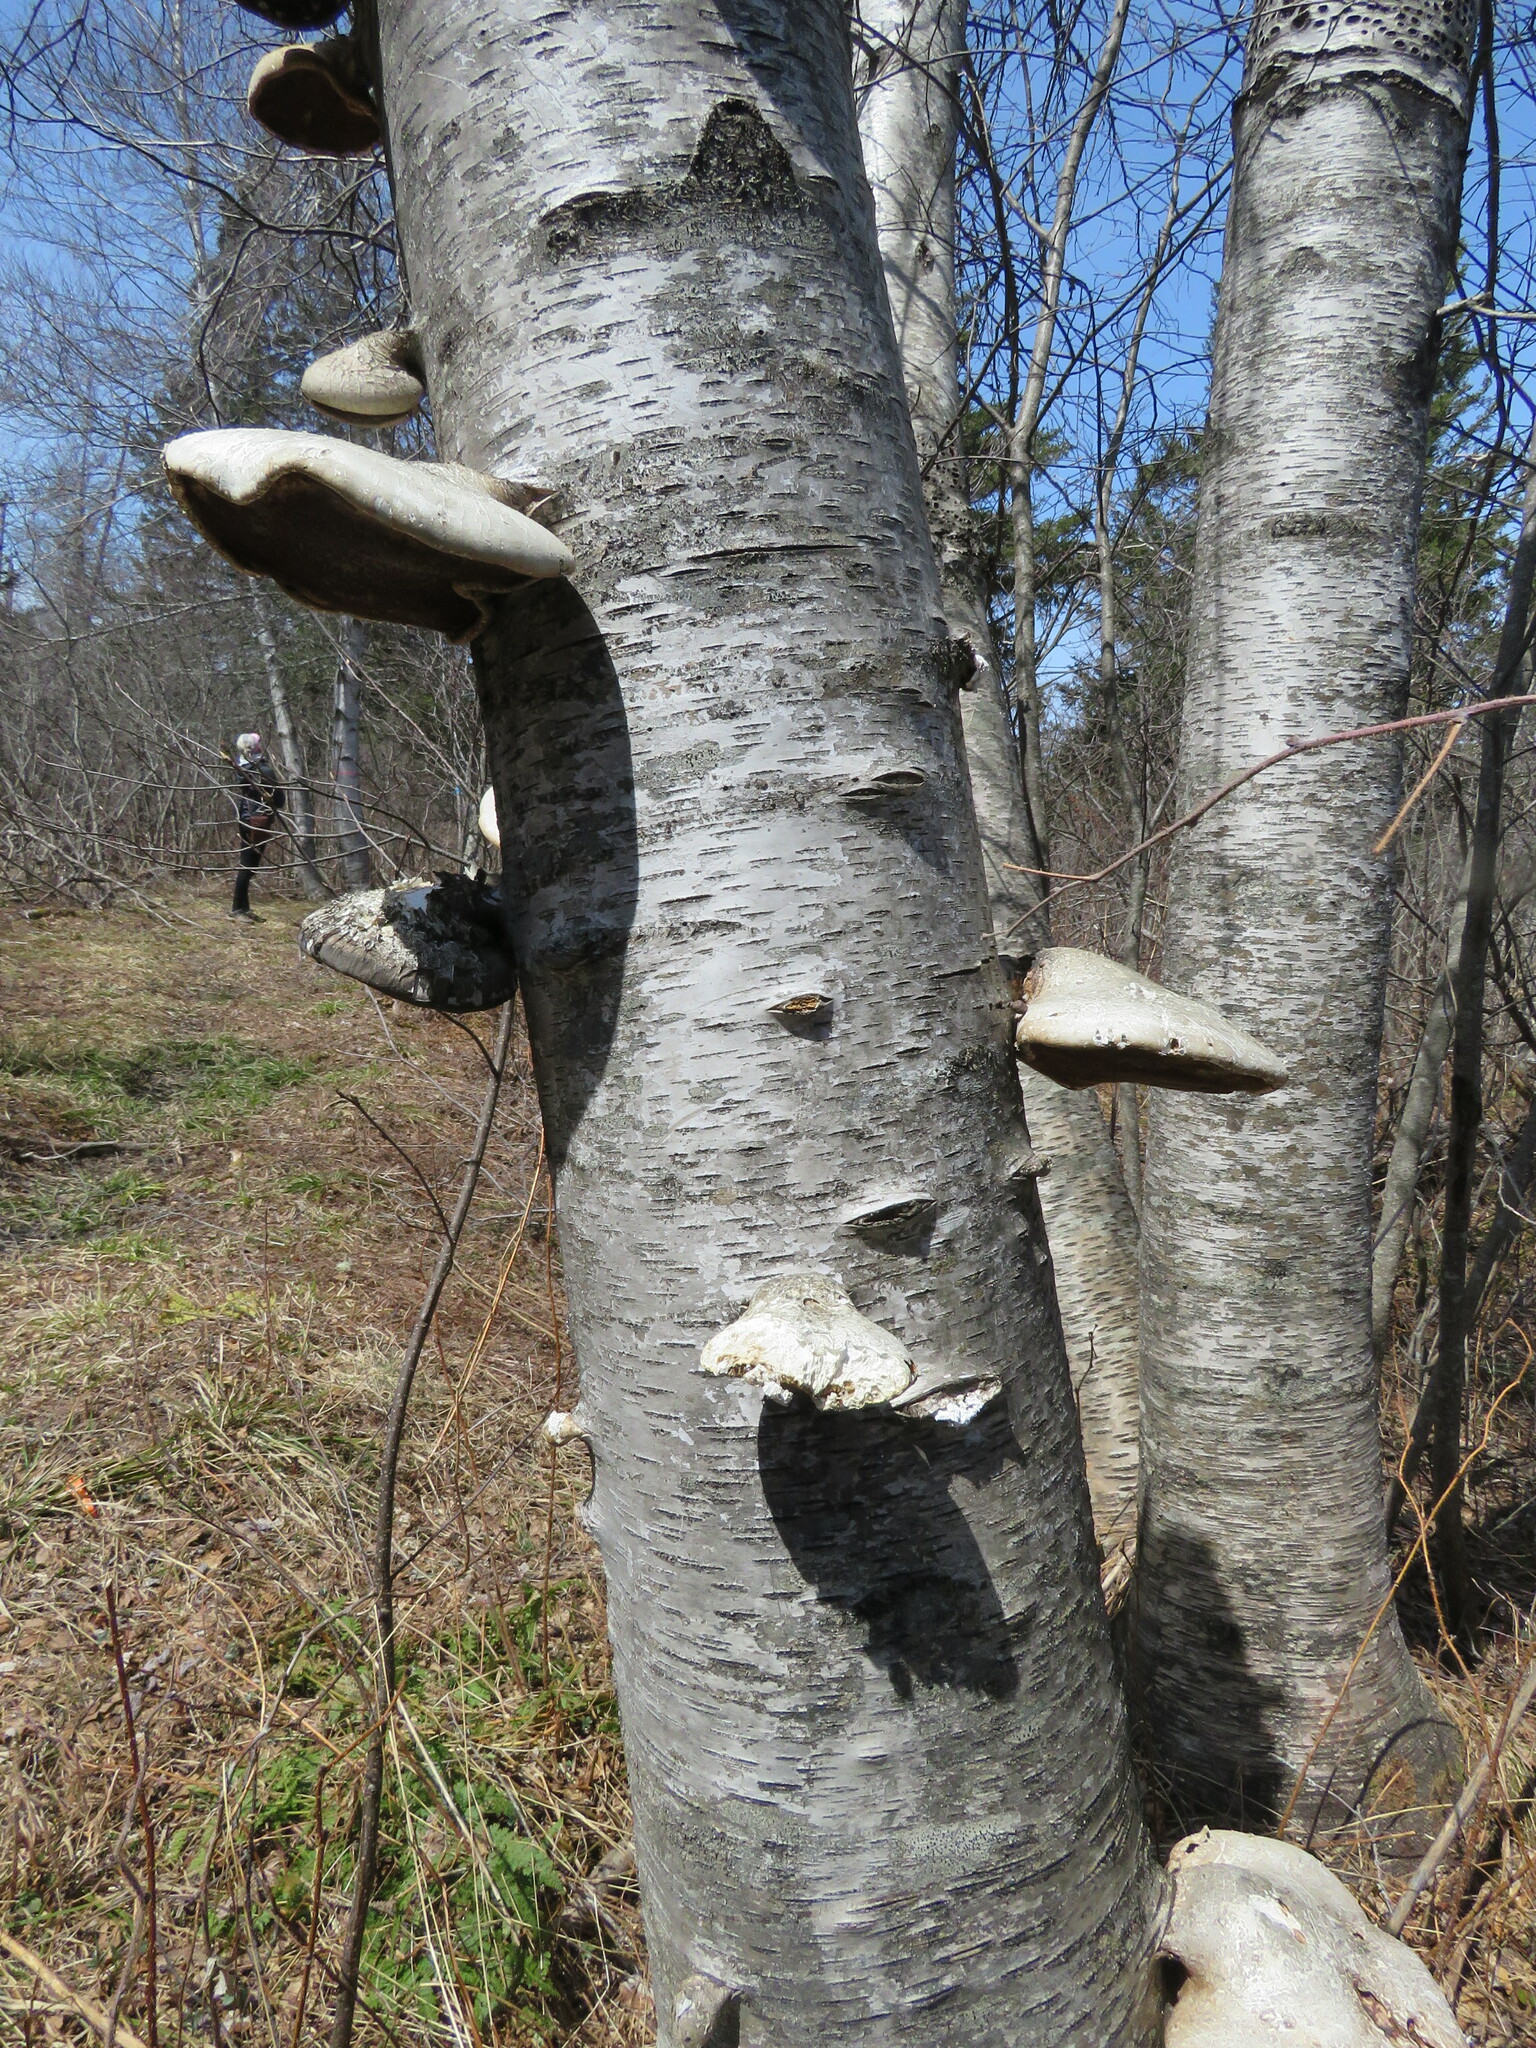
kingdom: Fungi
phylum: Basidiomycota
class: Agaricomycetes
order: Polyporales
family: Fomitopsidaceae
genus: Fomitopsis
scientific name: Fomitopsis betulina
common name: Birch polypore
